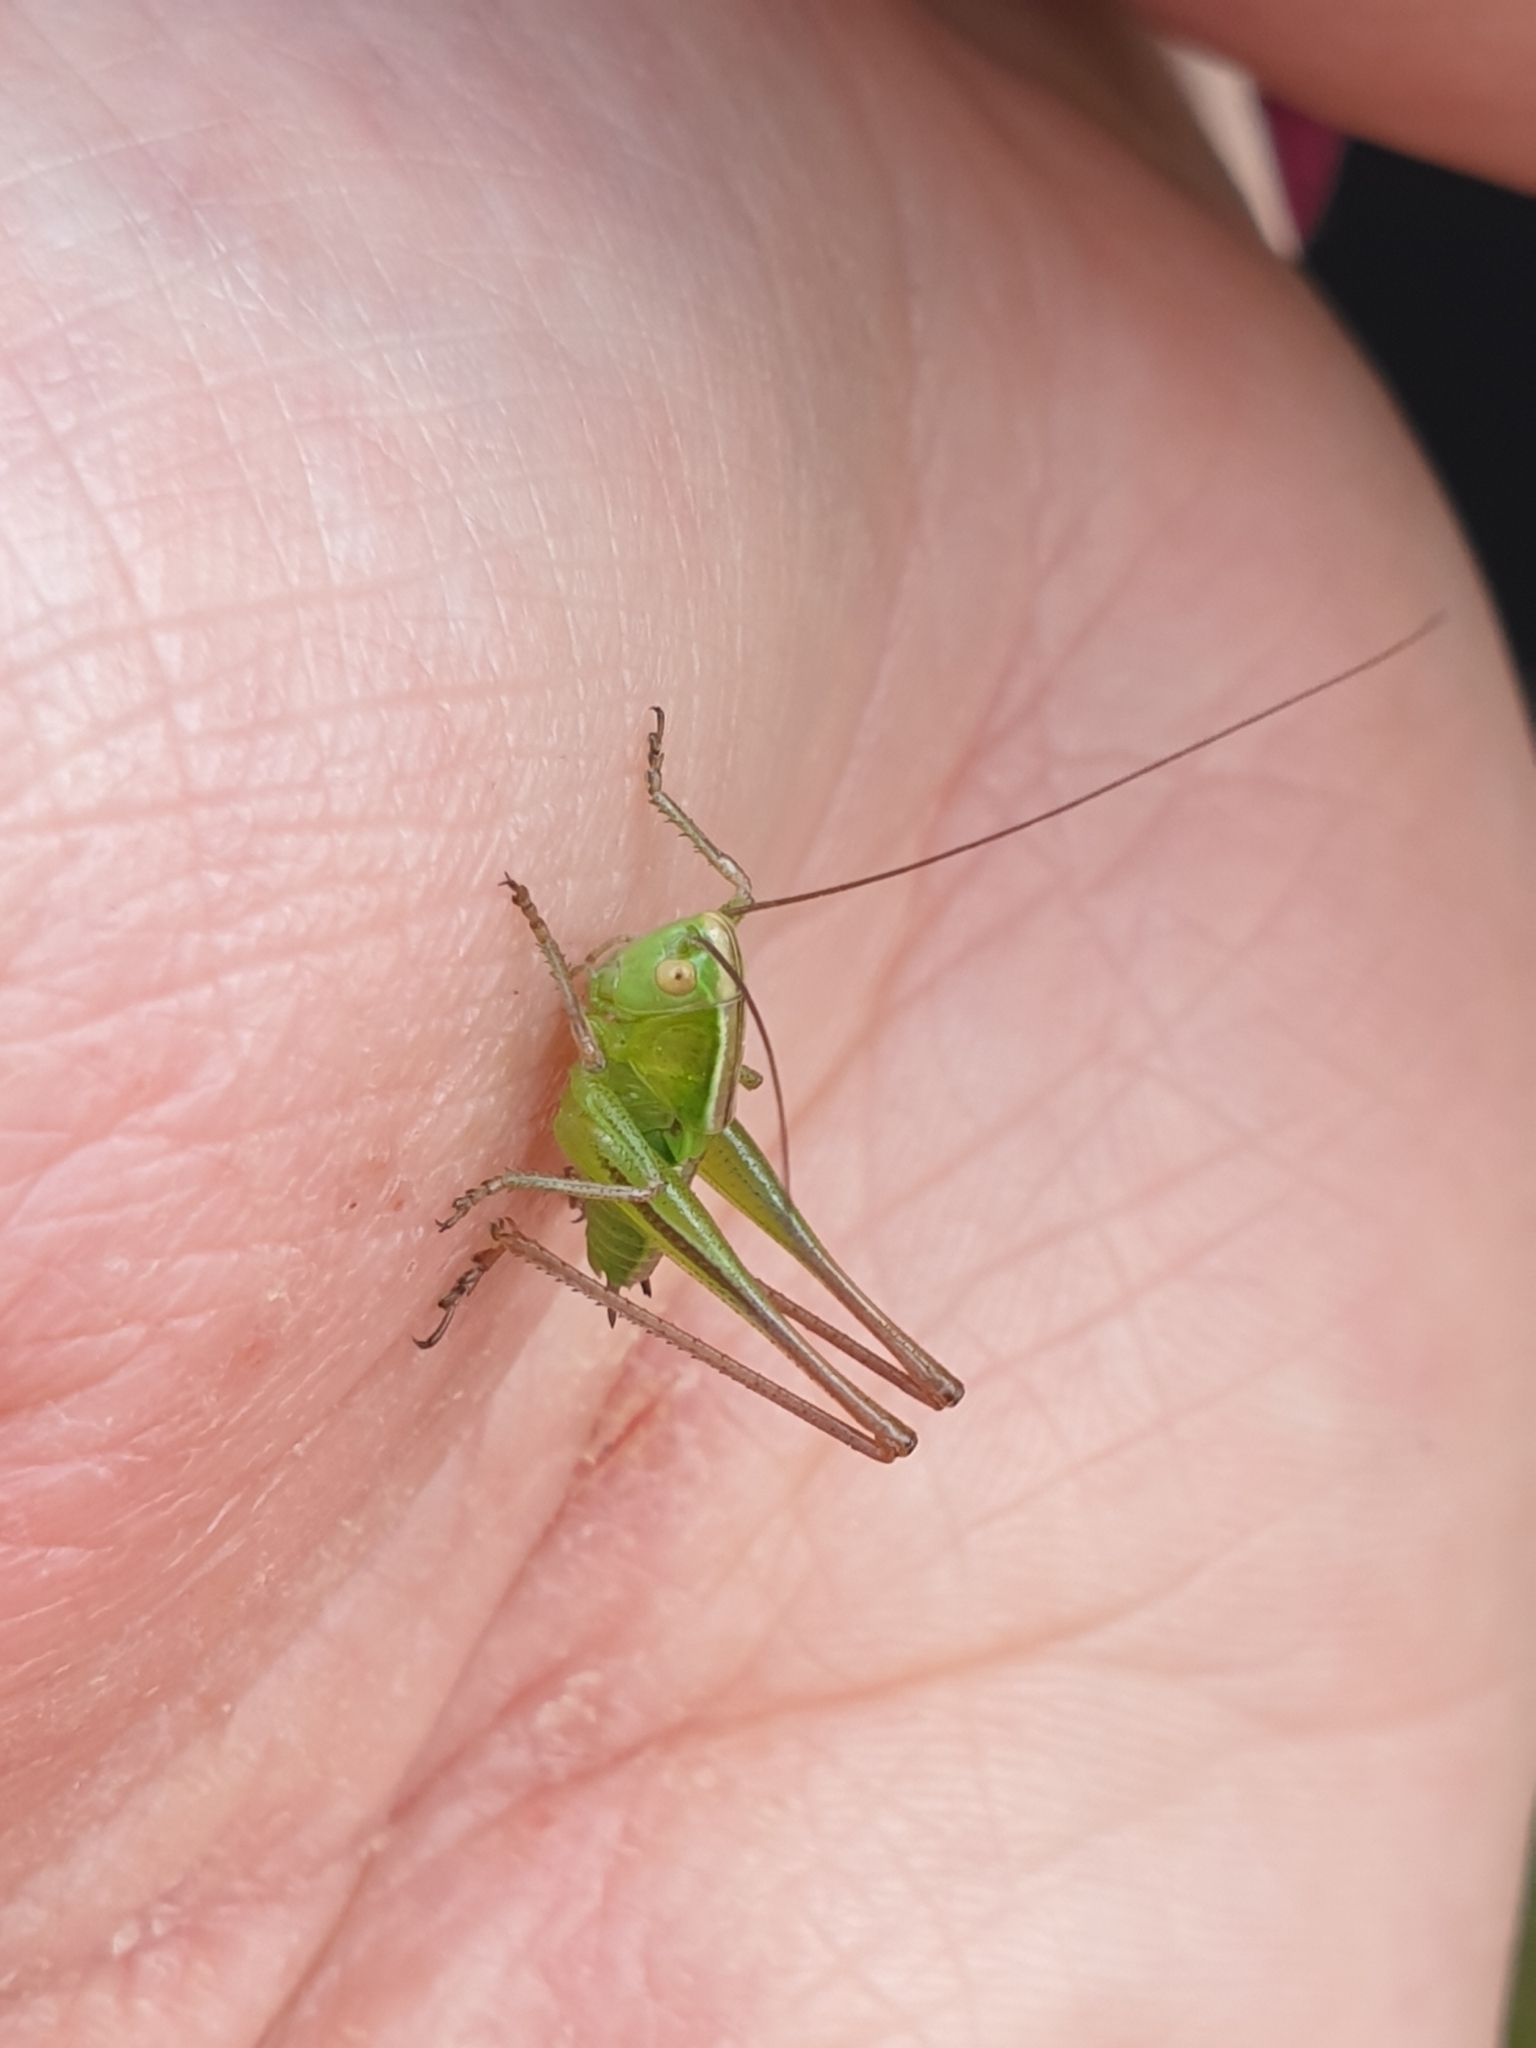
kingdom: Animalia
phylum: Arthropoda
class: Insecta
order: Orthoptera
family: Tettigoniidae
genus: Bicolorana
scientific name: Bicolorana bicolor
